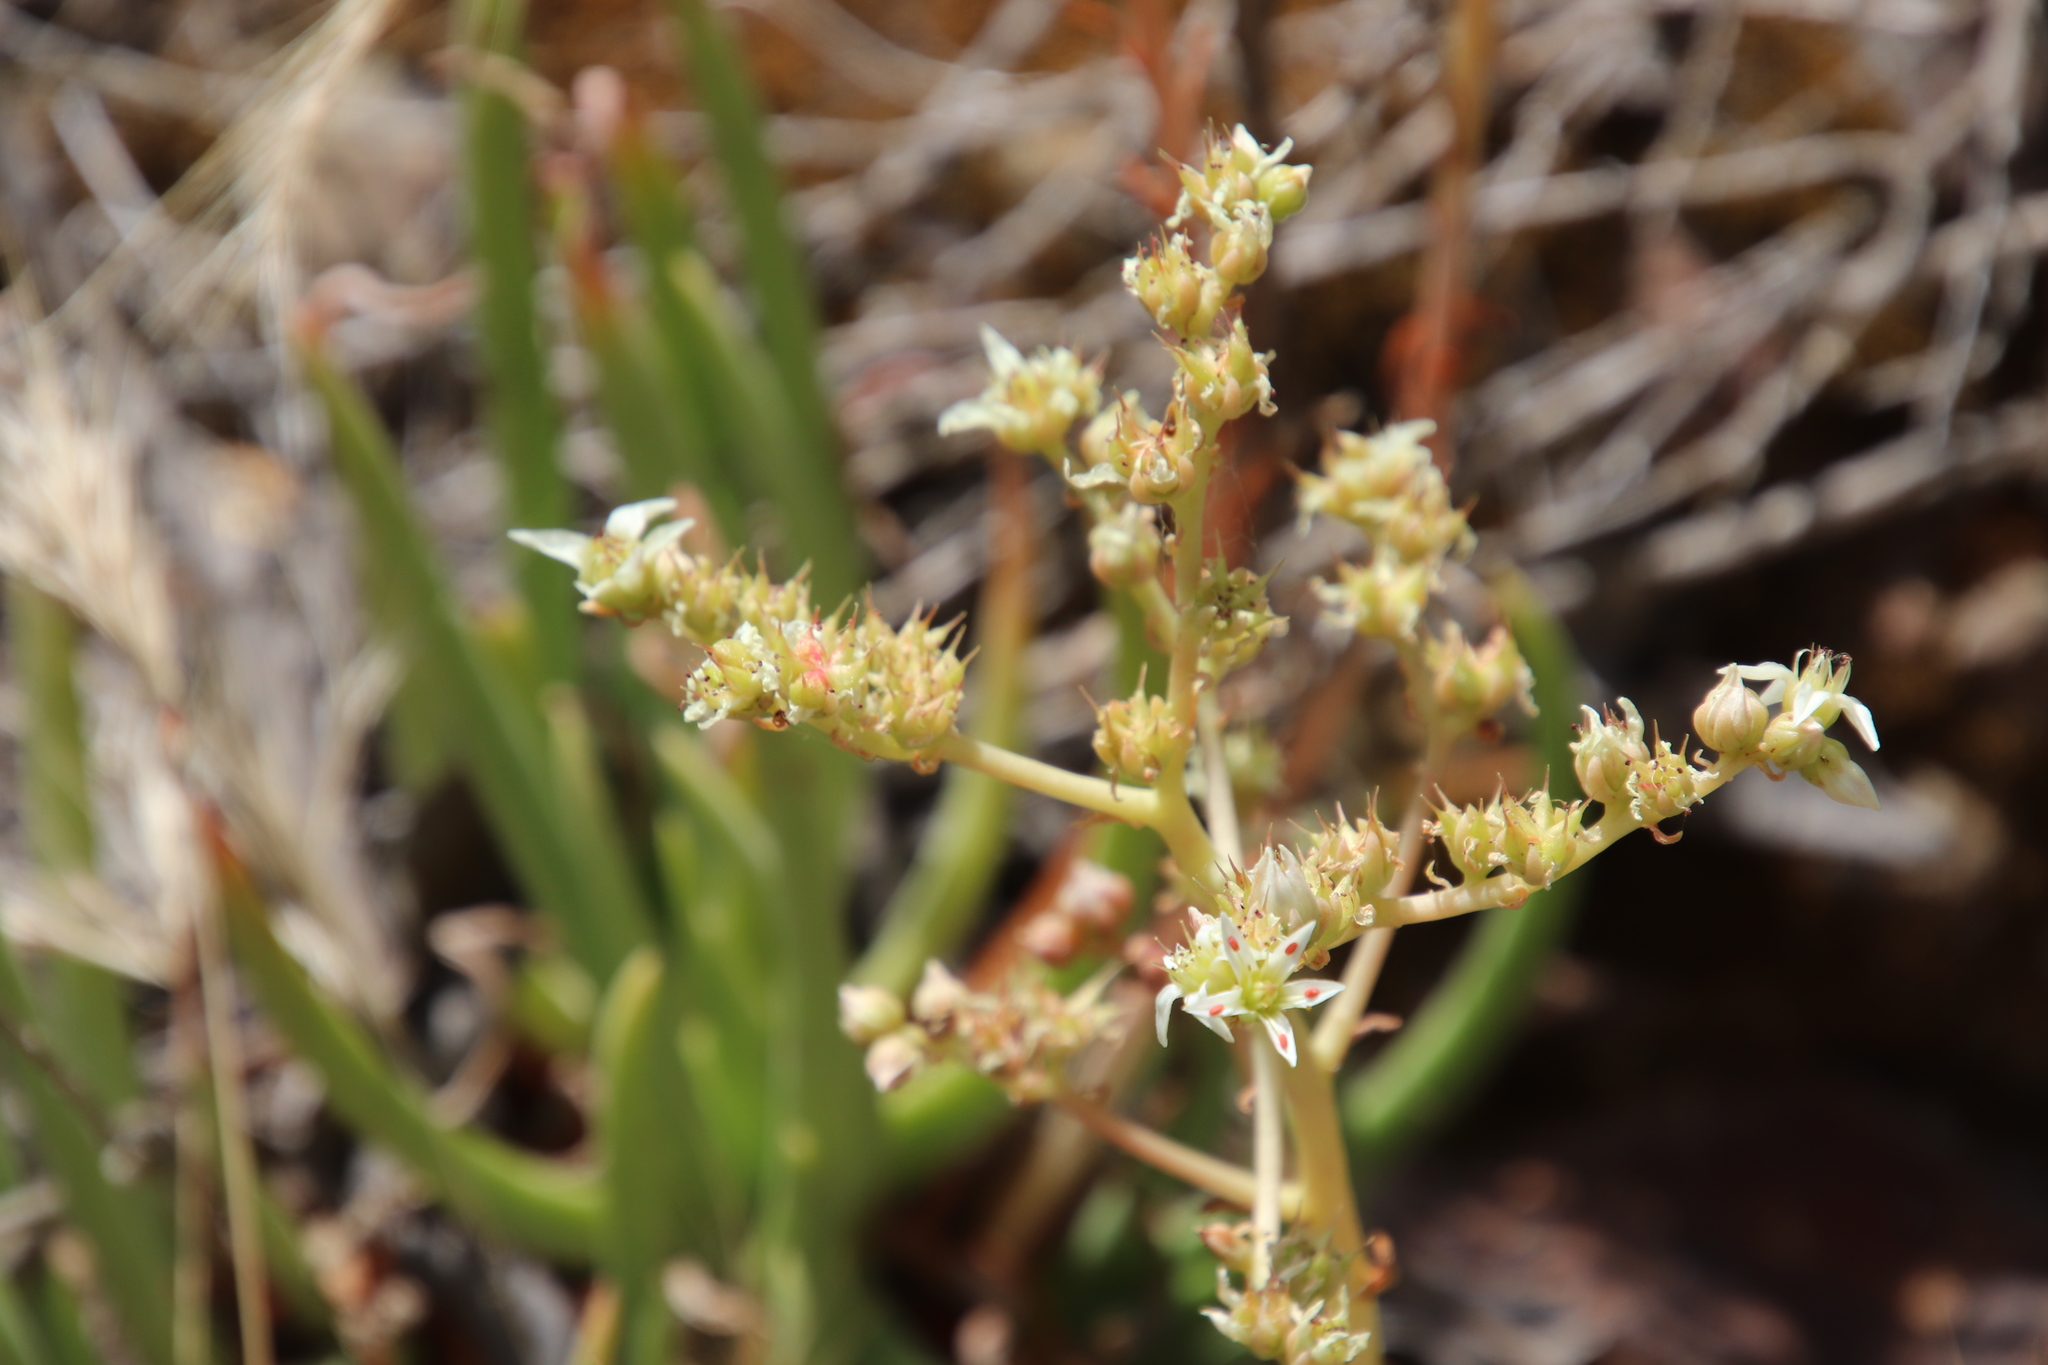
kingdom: Plantae
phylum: Tracheophyta
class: Magnoliopsida
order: Saxifragales
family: Crassulaceae
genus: Dudleya
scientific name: Dudleya edulis
